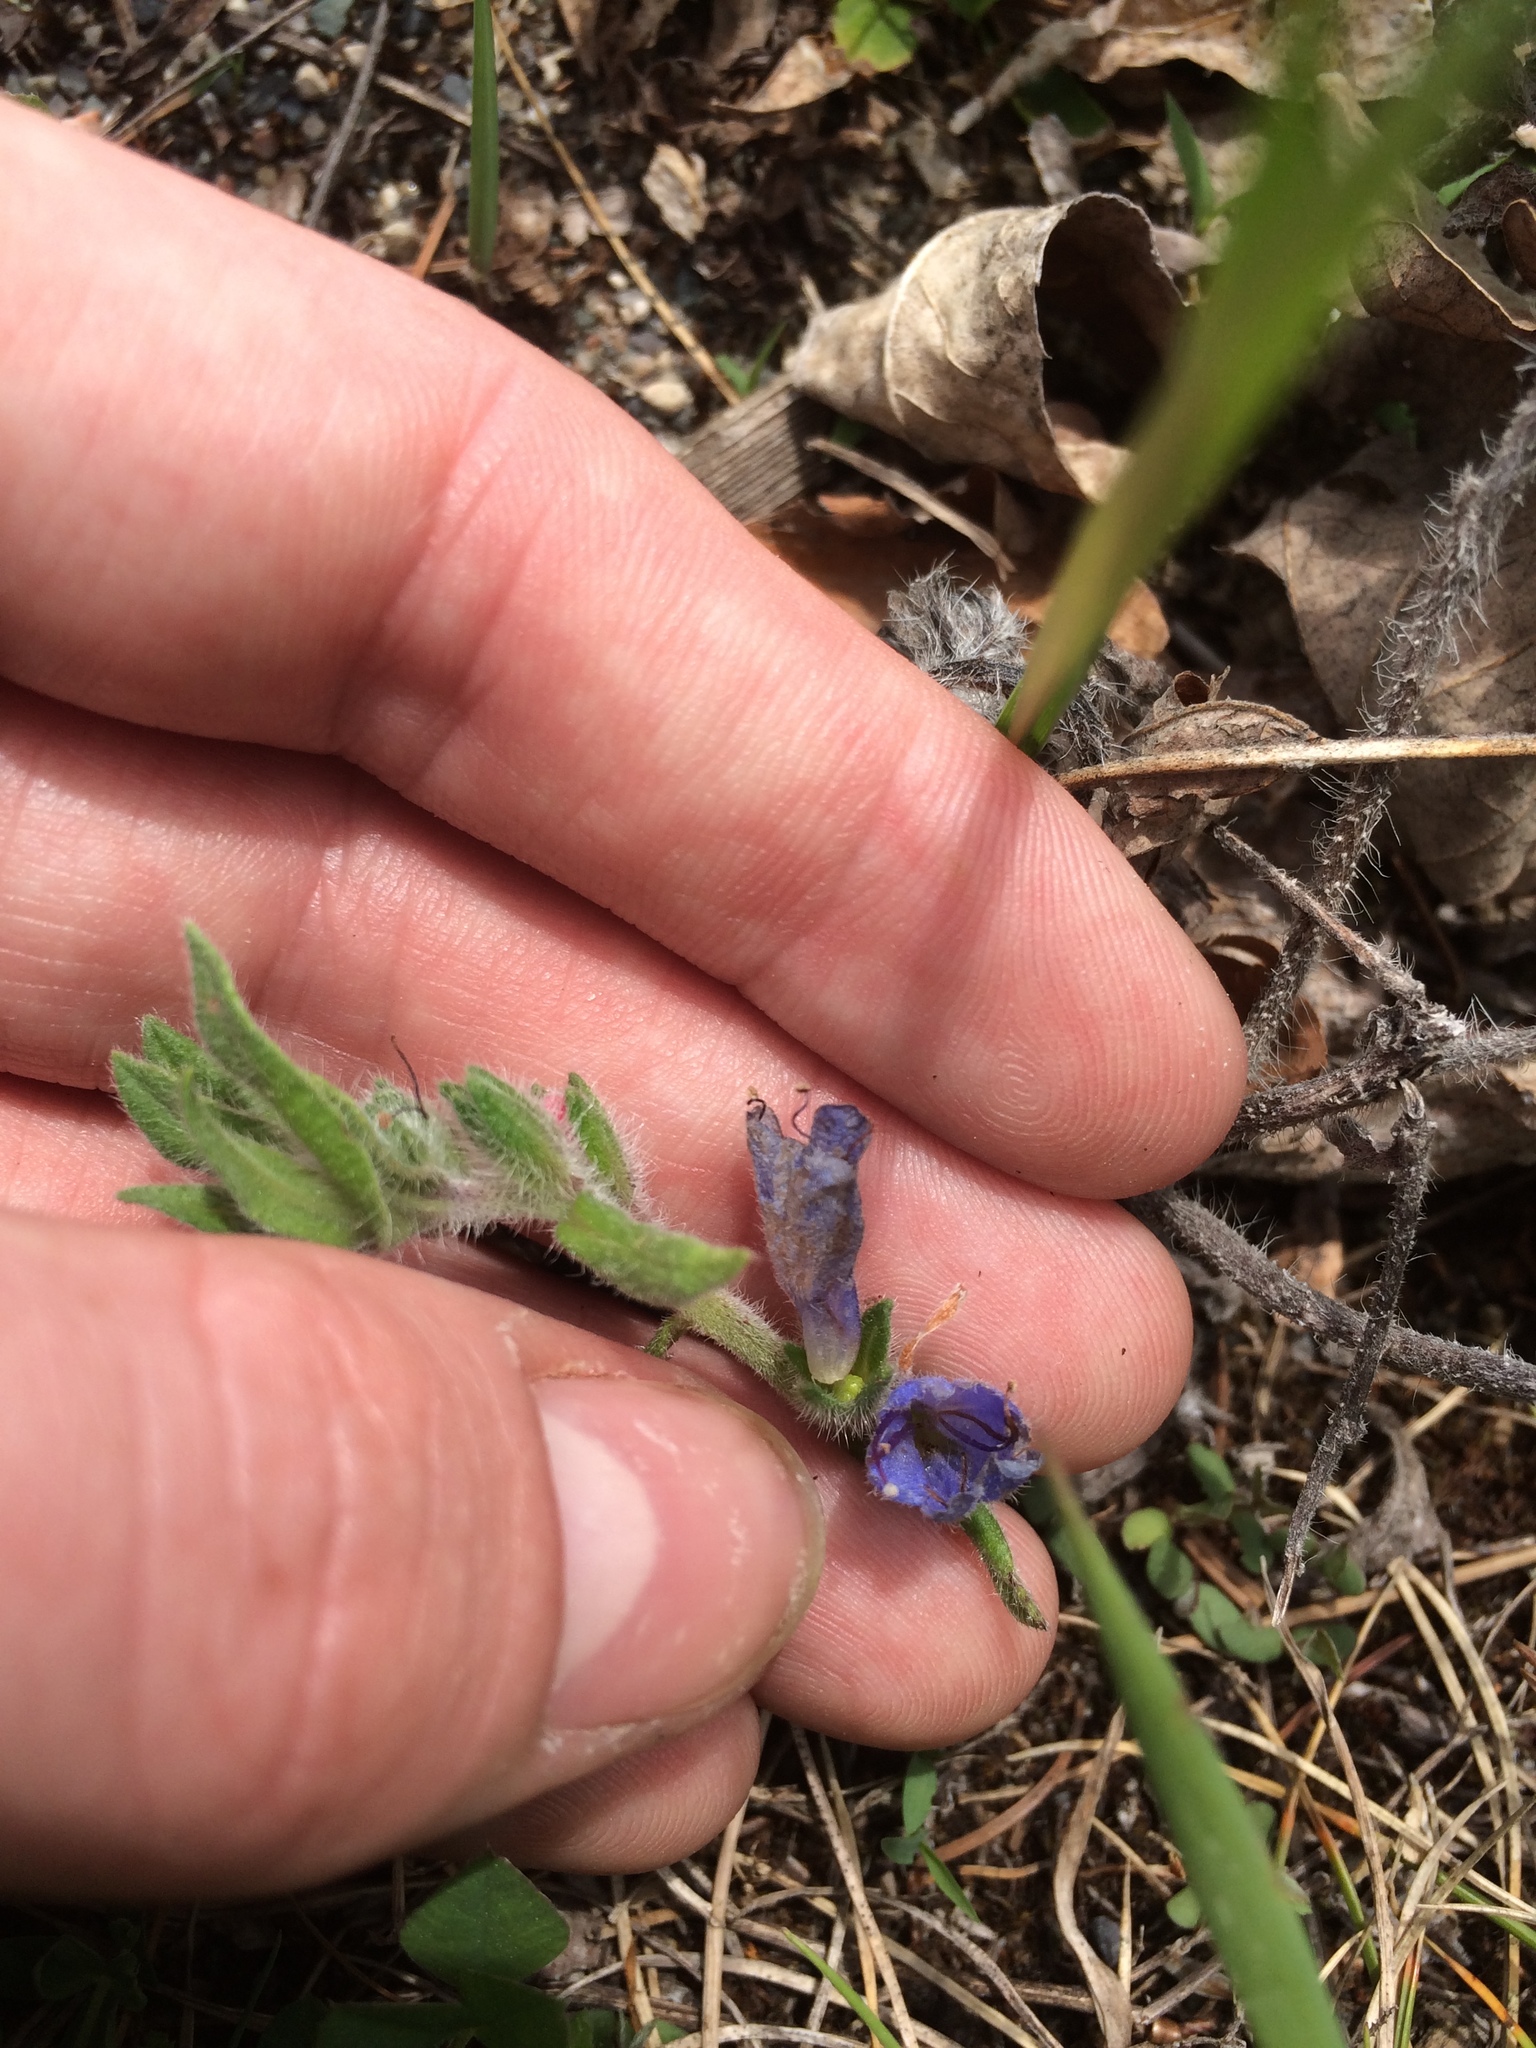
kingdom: Plantae
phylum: Tracheophyta
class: Magnoliopsida
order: Boraginales
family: Boraginaceae
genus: Echium
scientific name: Echium vulgare
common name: Common viper's bugloss
